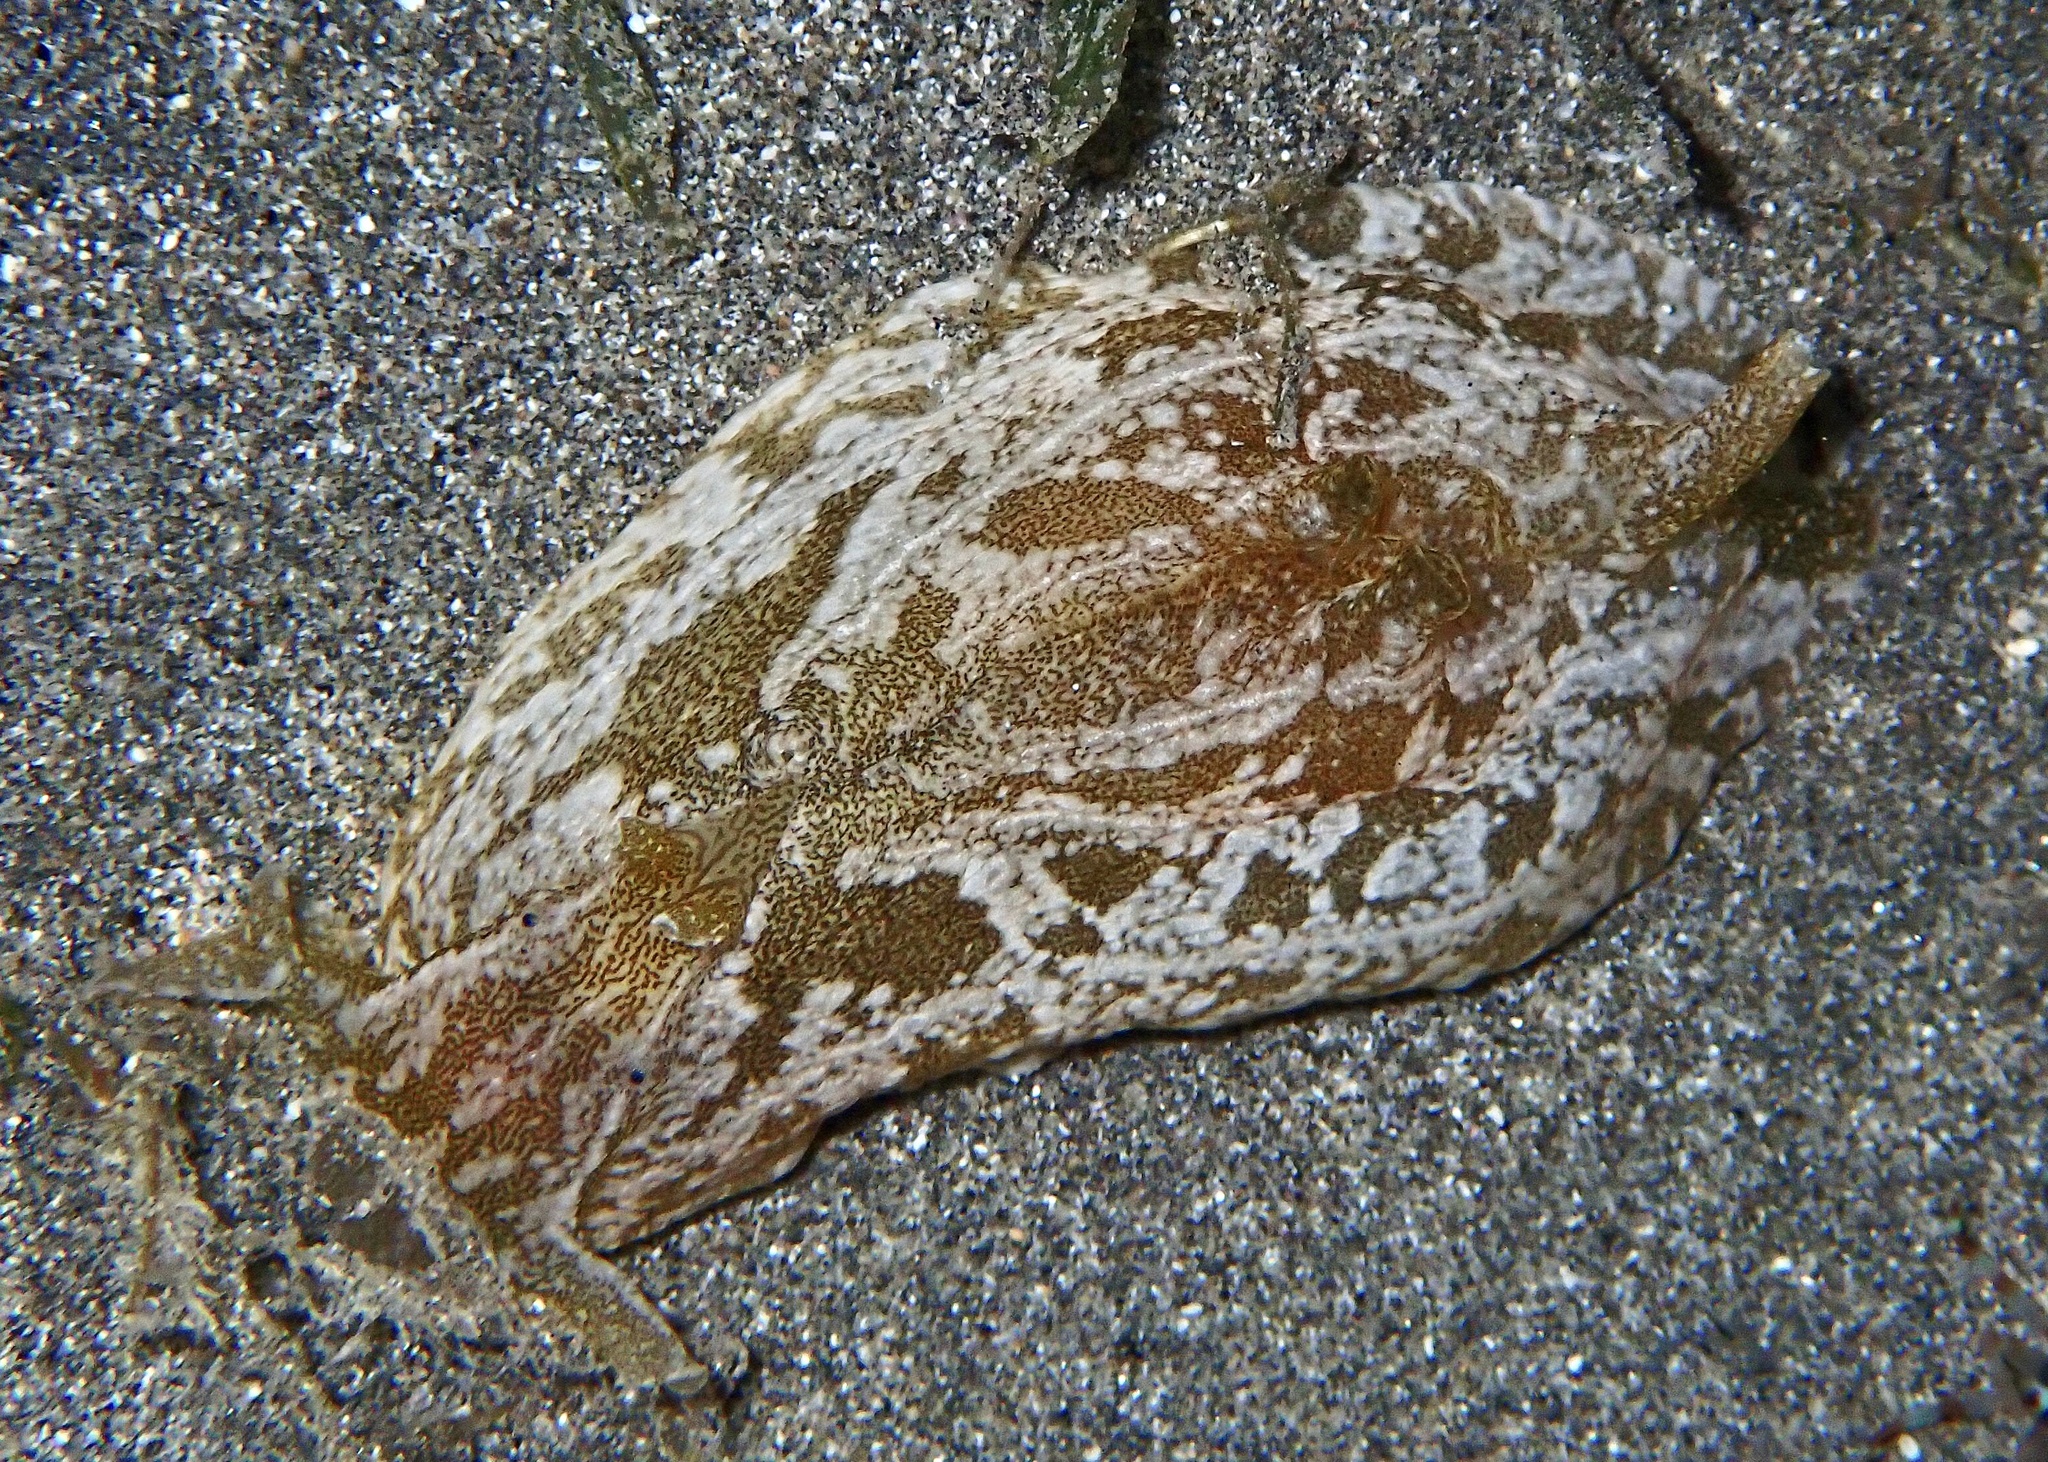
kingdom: Animalia
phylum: Mollusca
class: Gastropoda
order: Aplysiida
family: Aplysiidae
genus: Syphonota
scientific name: Syphonota geographica
